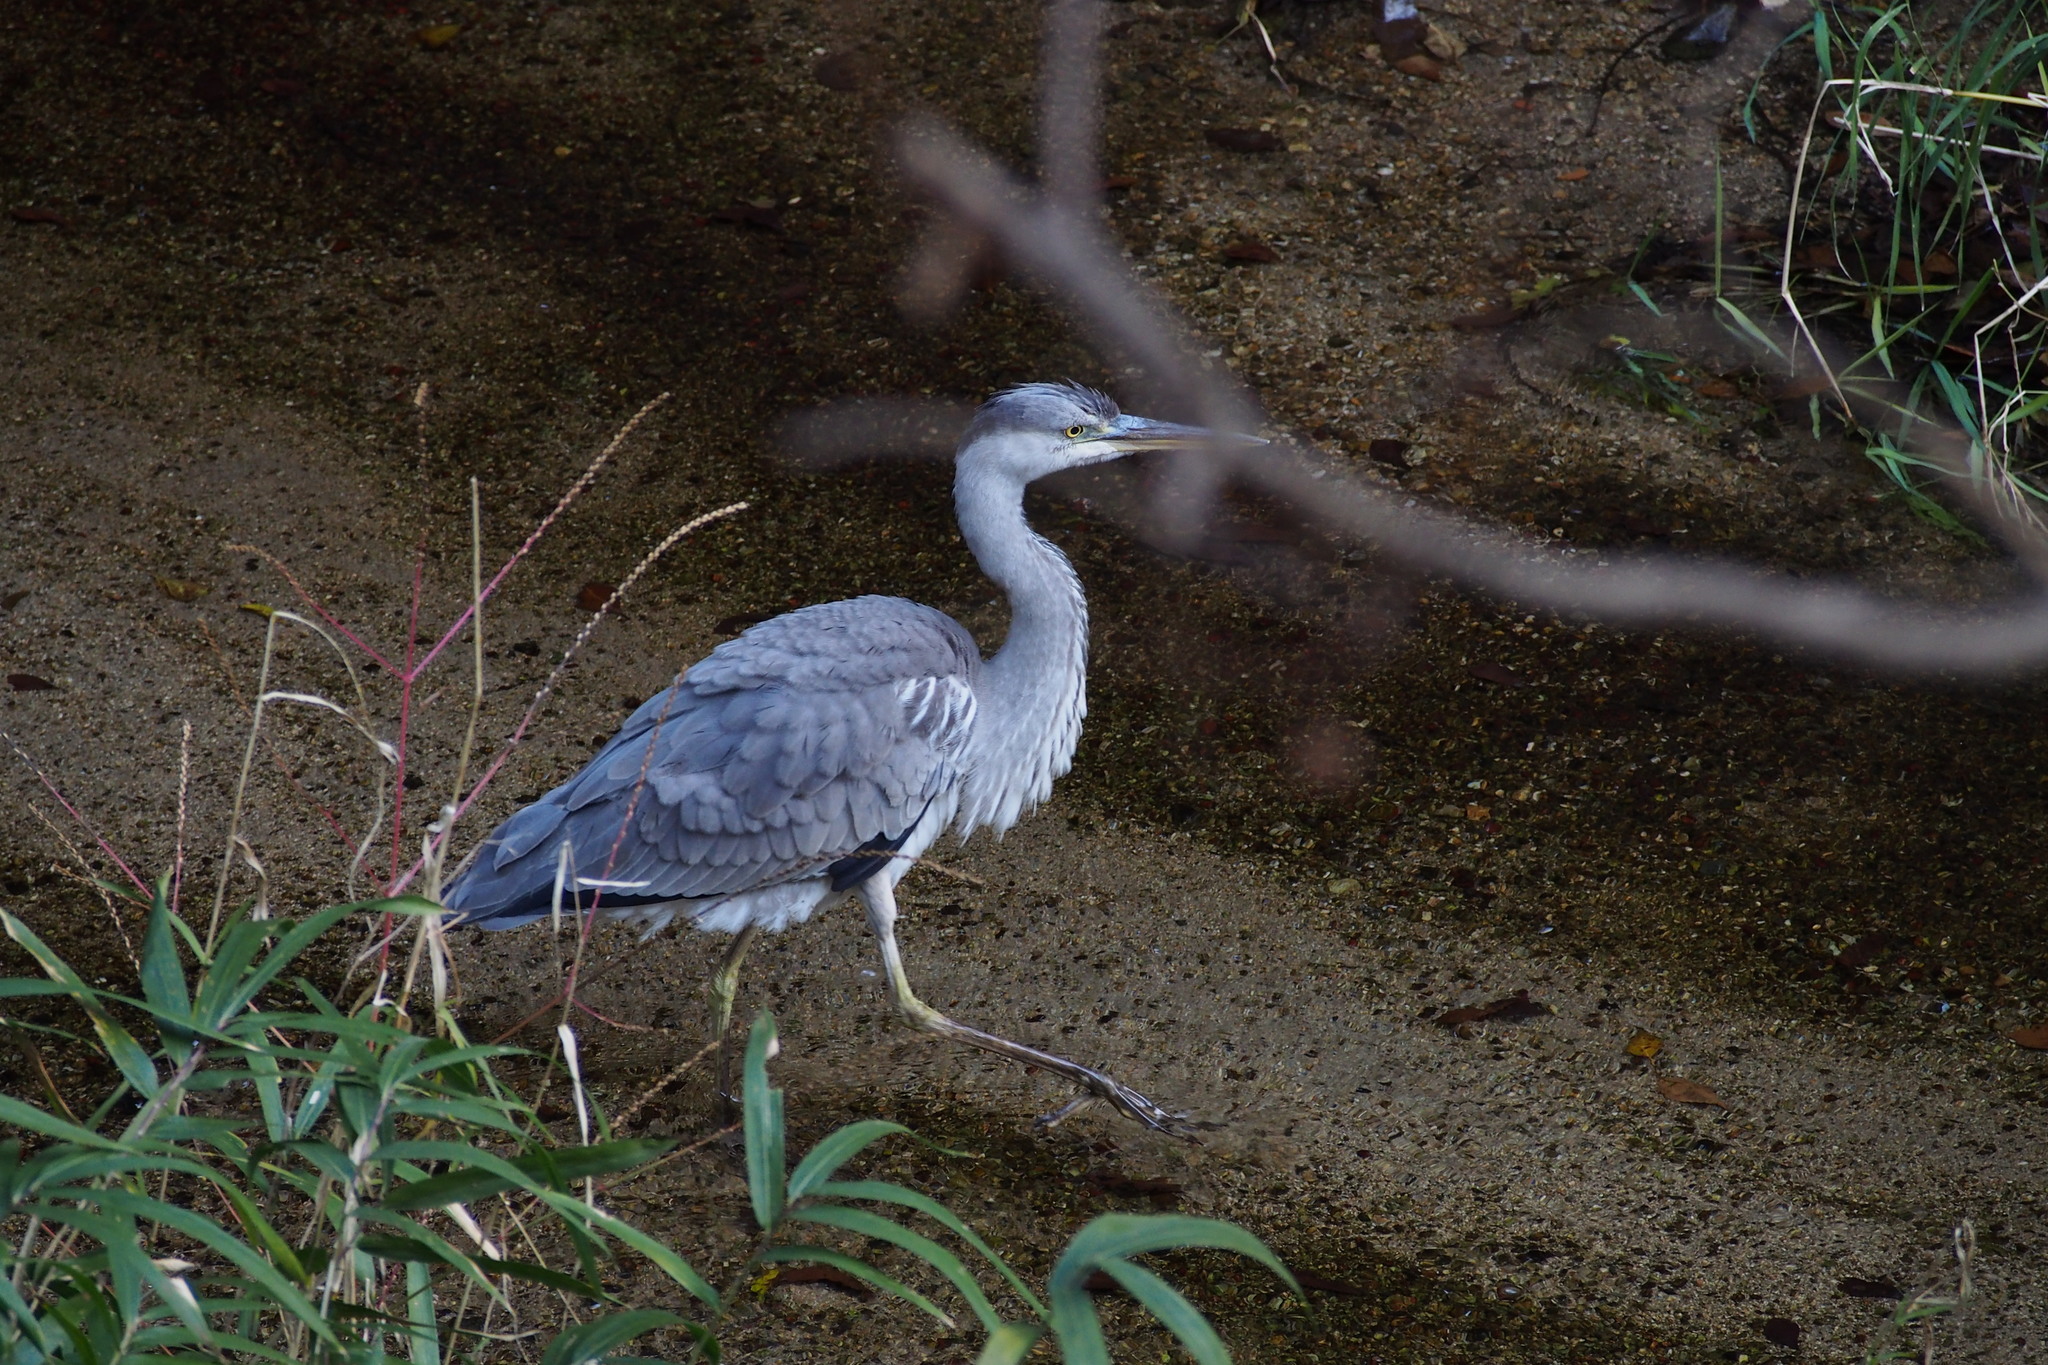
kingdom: Animalia
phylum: Chordata
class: Aves
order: Pelecaniformes
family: Ardeidae
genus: Ardea
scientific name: Ardea cinerea
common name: Grey heron
